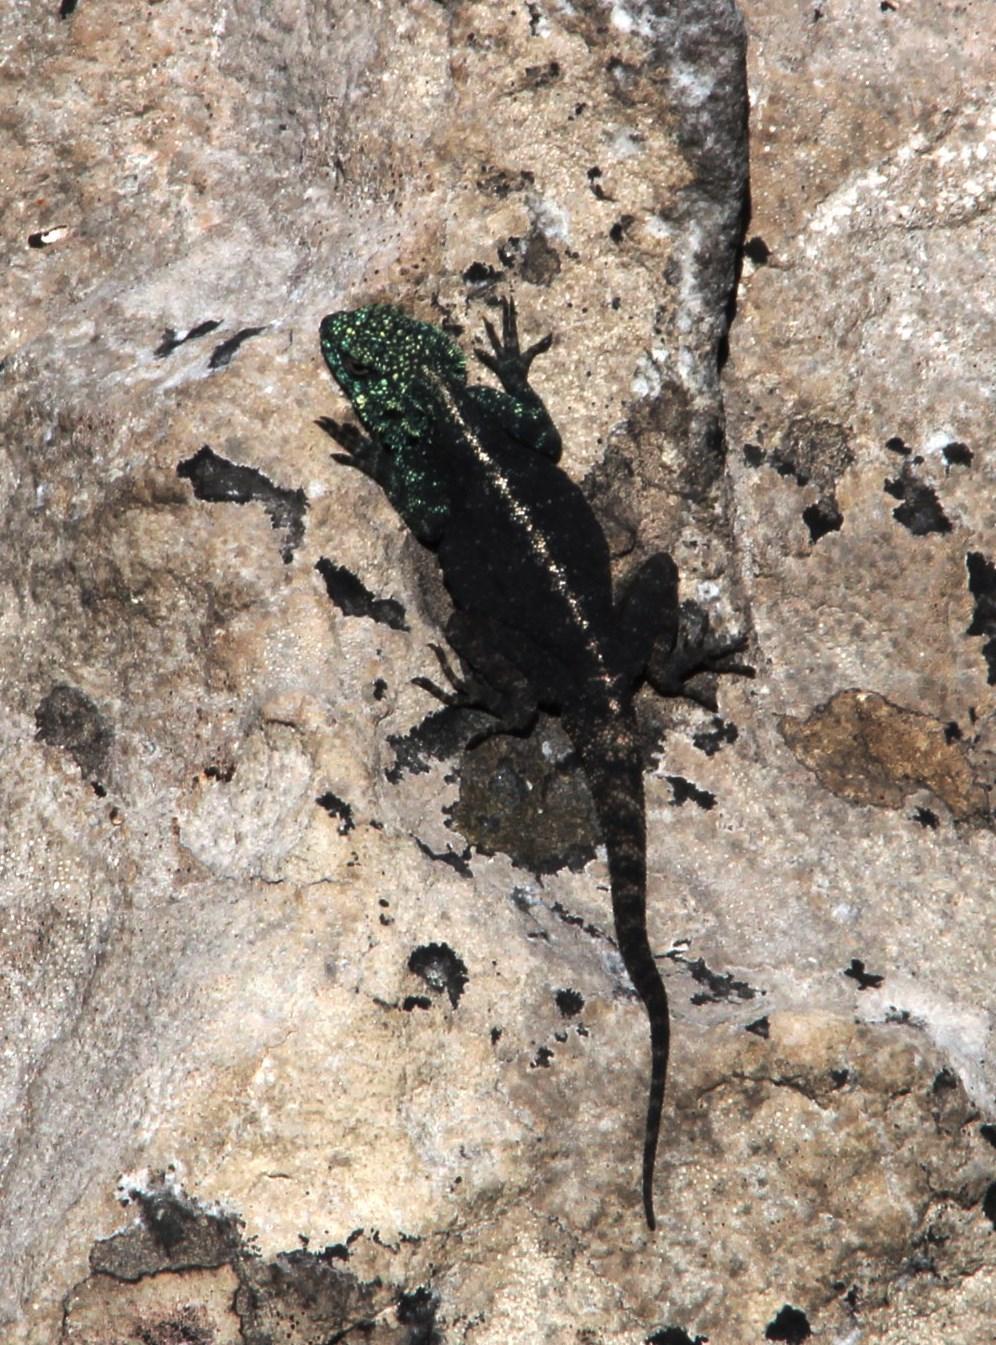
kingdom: Animalia
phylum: Chordata
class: Squamata
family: Agamidae
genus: Agama
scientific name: Agama atra
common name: Southern african rock agama
